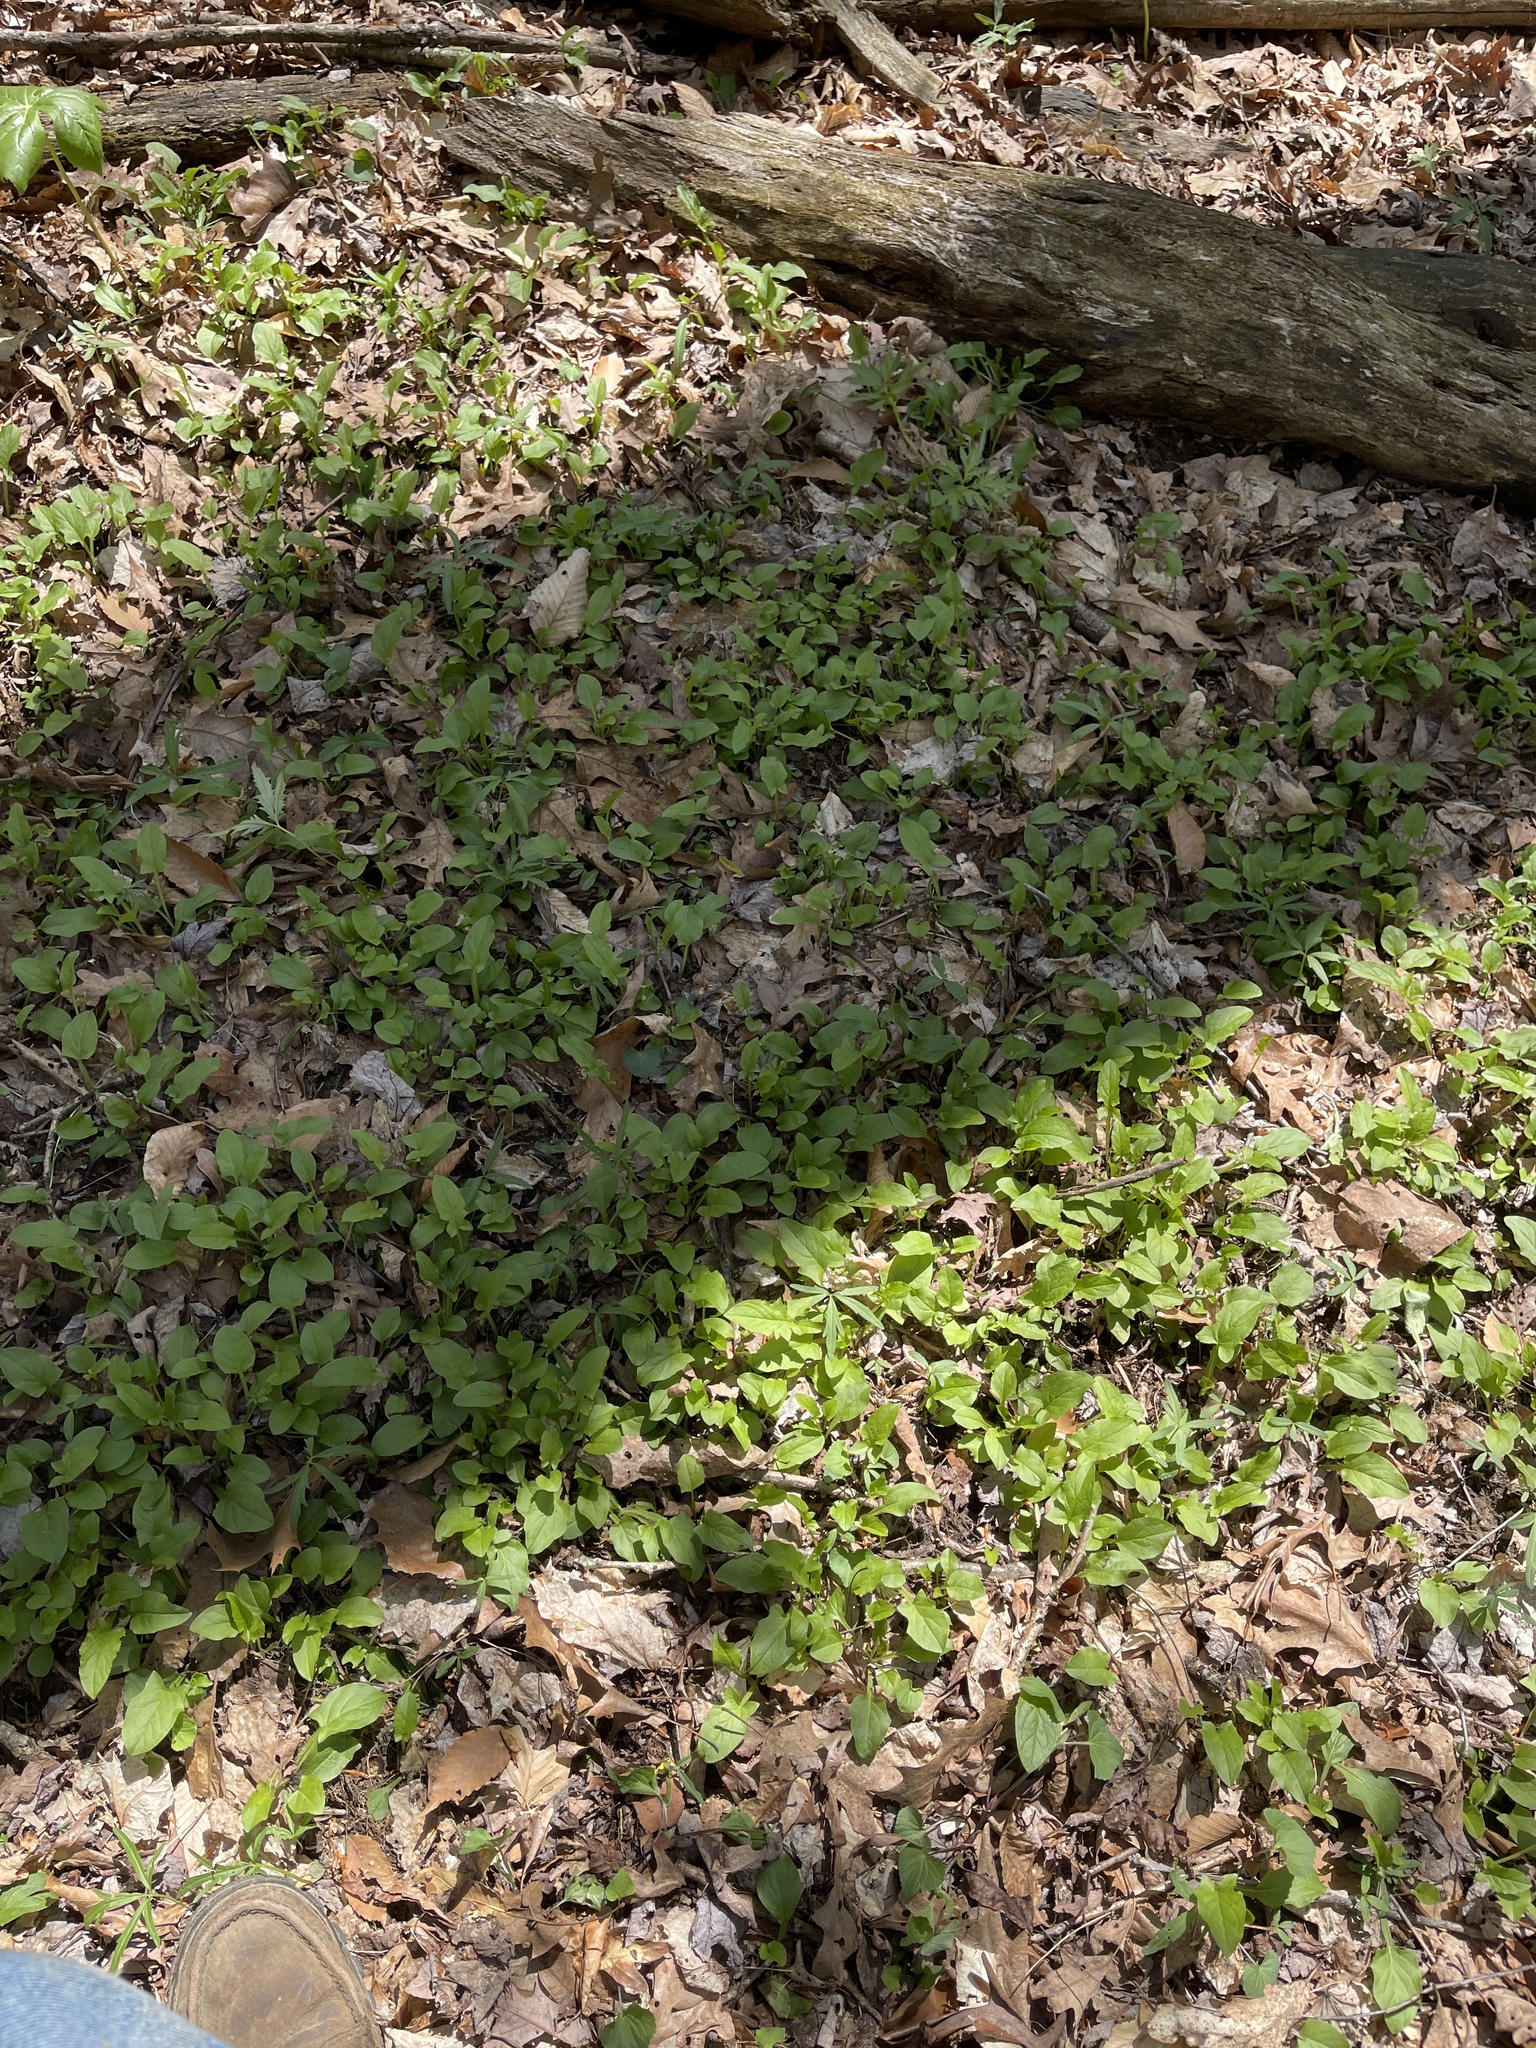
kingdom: Plantae
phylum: Tracheophyta
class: Magnoliopsida
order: Asterales
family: Asteraceae
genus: Nabalus
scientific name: Nabalus crepidineus
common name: Nodding rattlesnakeroot
